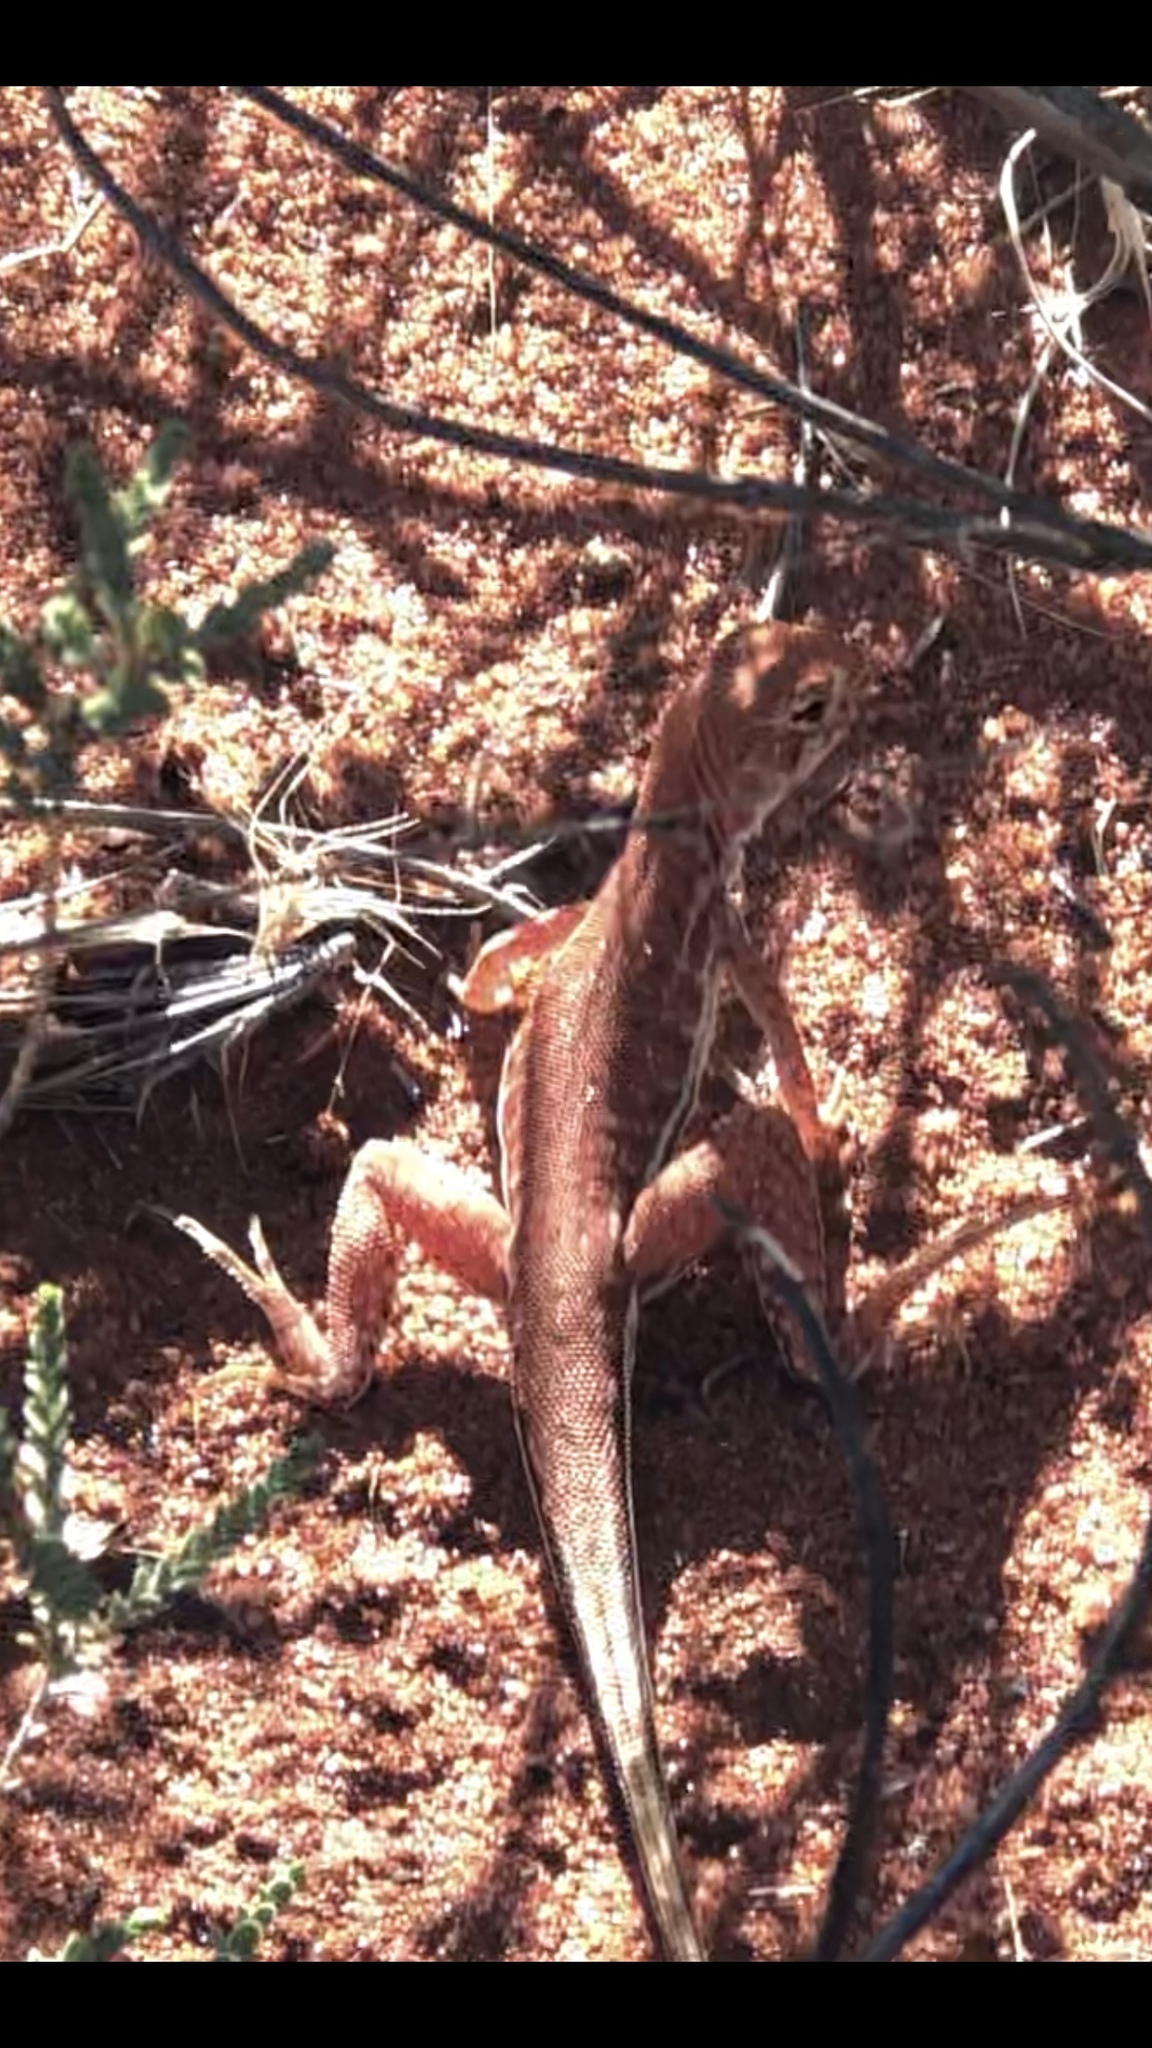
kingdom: Animalia
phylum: Chordata
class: Squamata
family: Agamidae
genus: Ctenophorus
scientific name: Ctenophorus femoralis
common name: Long-tailed sand-dragon
